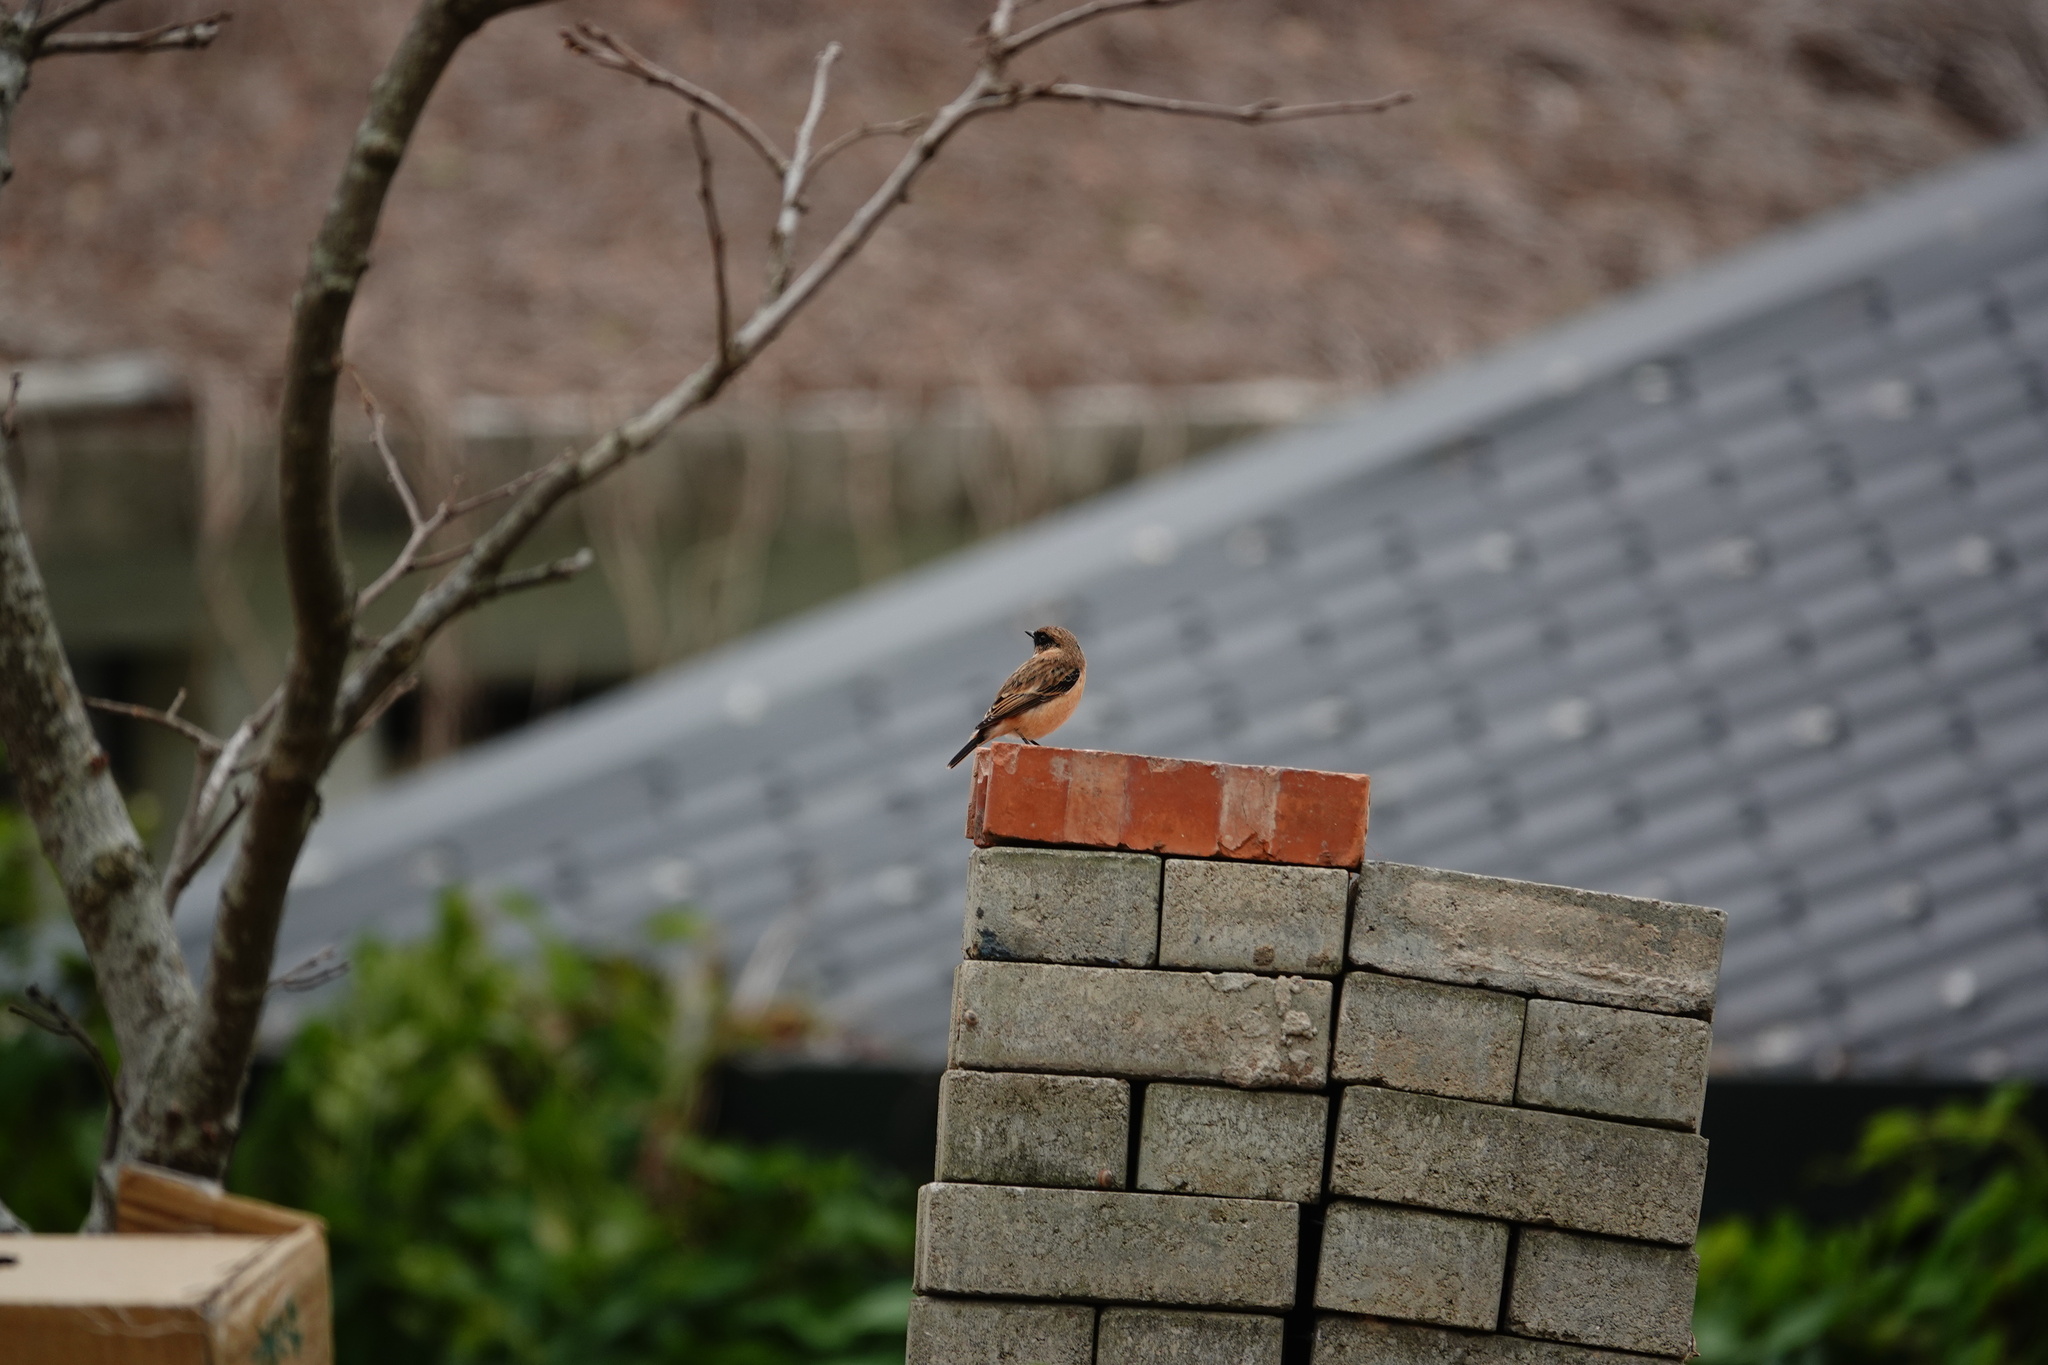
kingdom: Animalia
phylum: Chordata
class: Aves
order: Passeriformes
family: Muscicapidae
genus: Saxicola
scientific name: Saxicola stejnegeri
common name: Stejneger's stonechat
